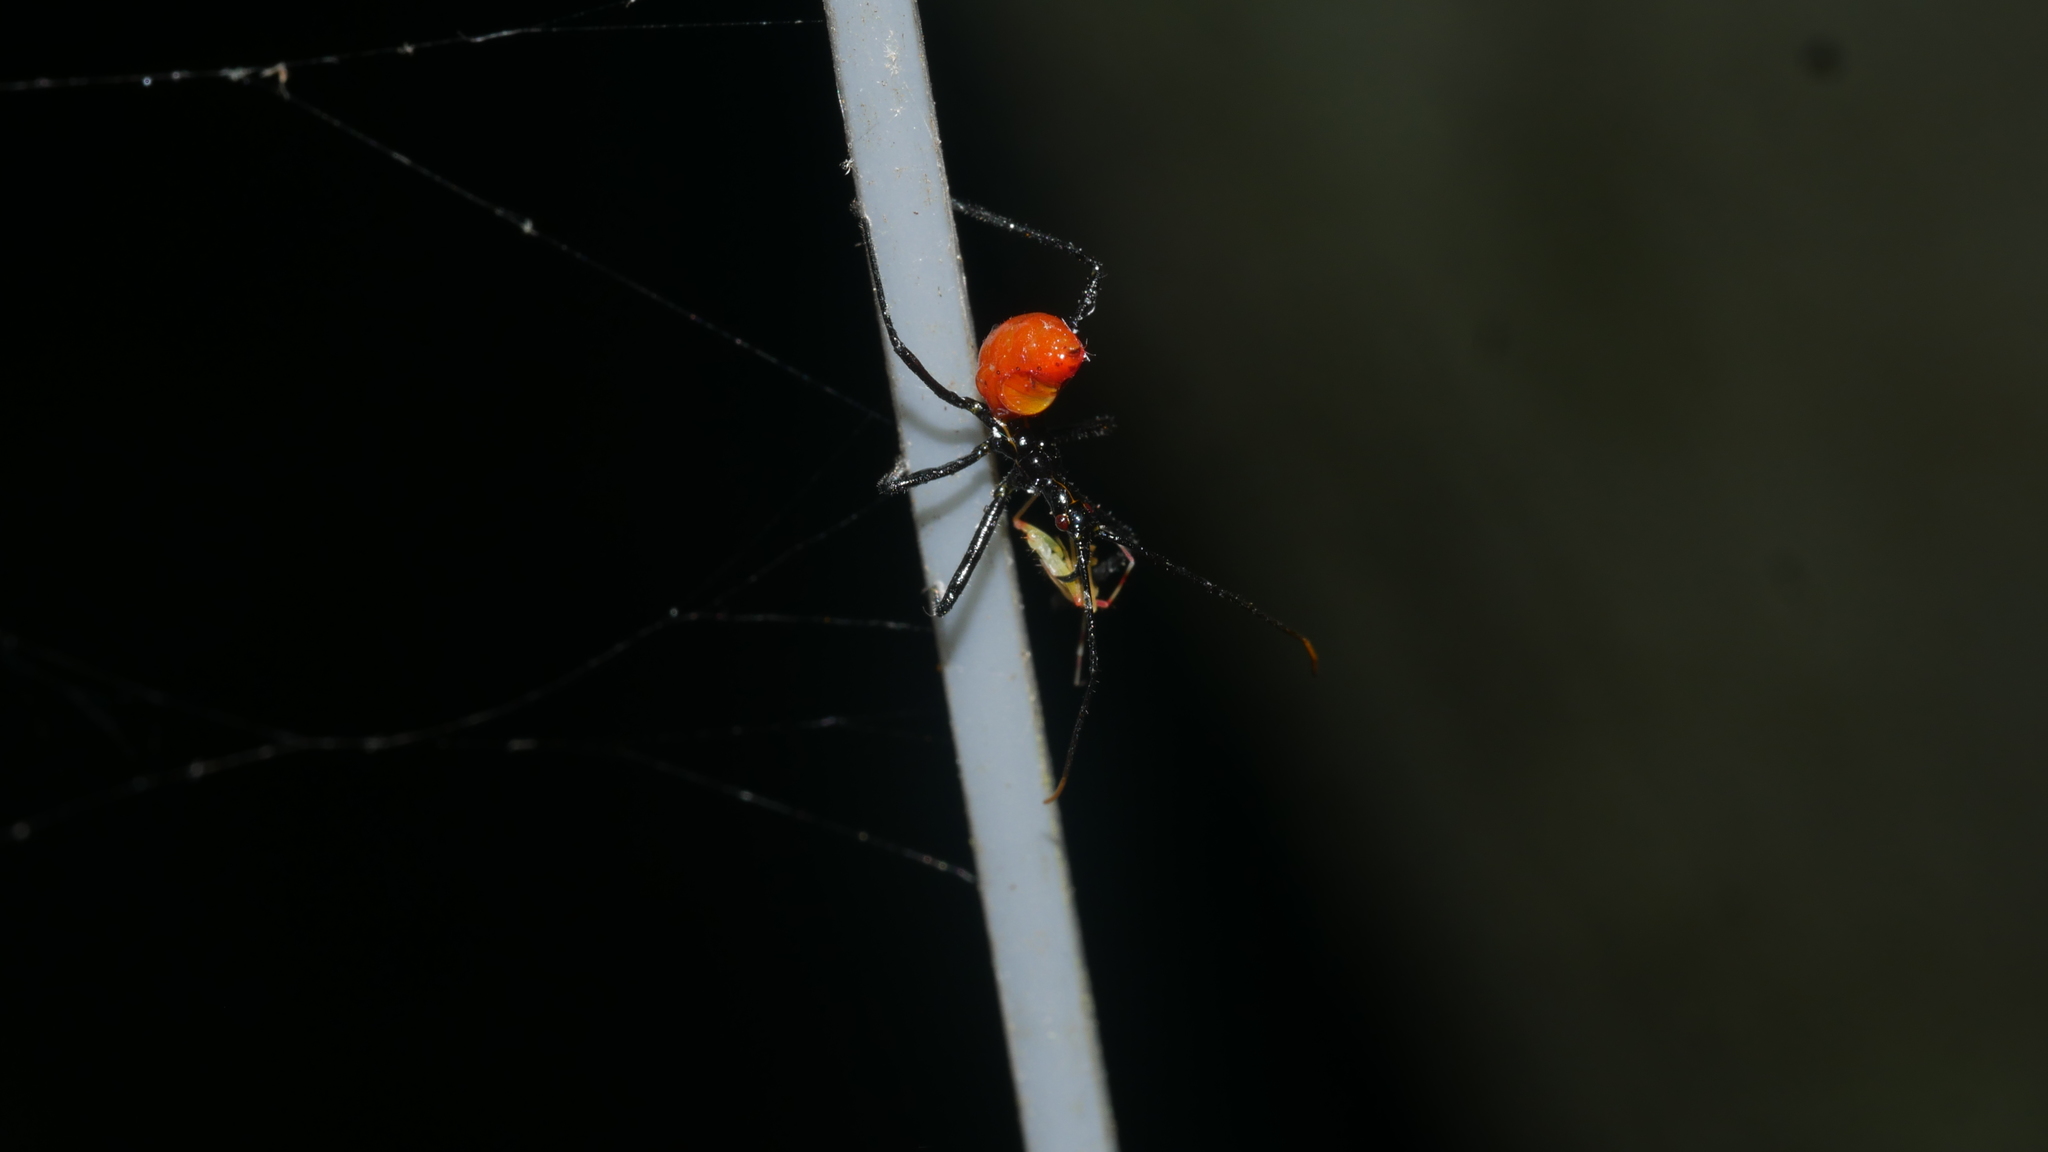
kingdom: Animalia
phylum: Arthropoda
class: Insecta
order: Hemiptera
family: Reduviidae
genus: Arilus
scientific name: Arilus cristatus
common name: North american wheel bug
